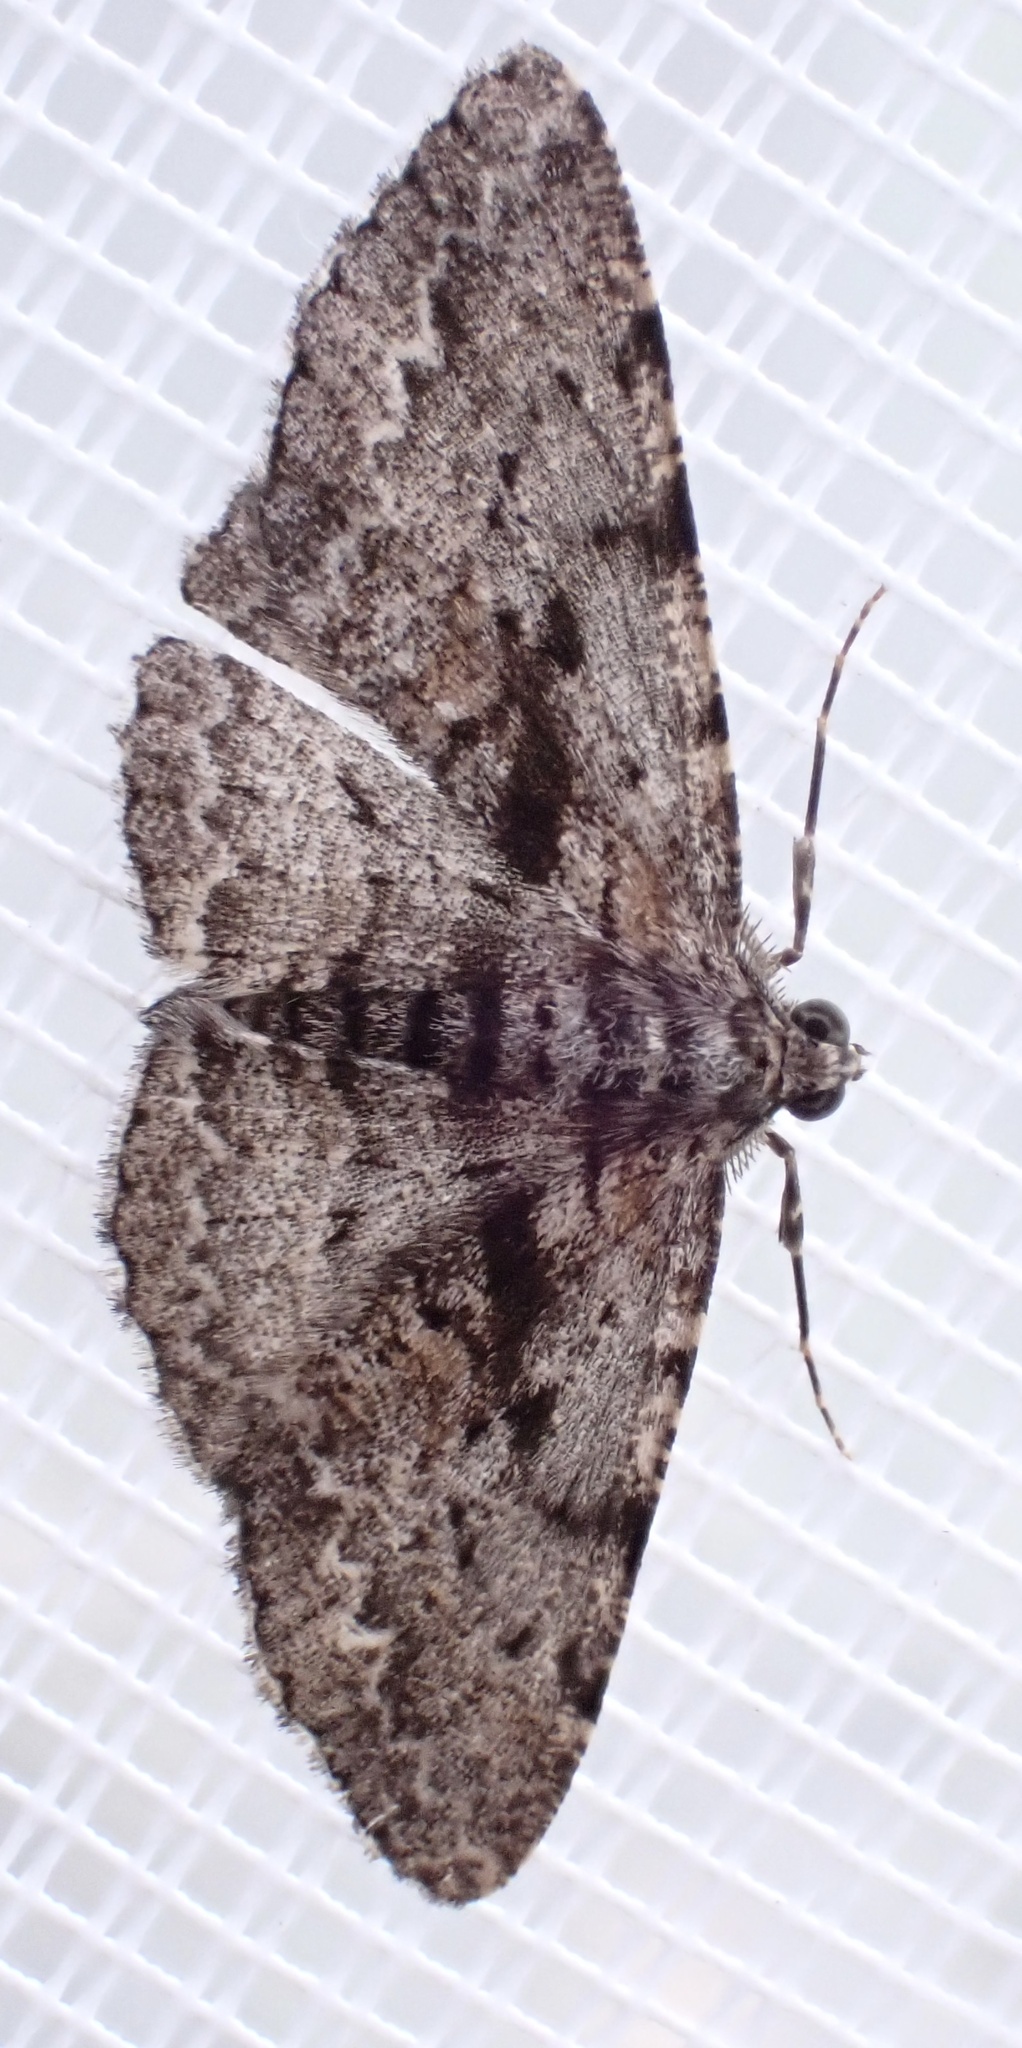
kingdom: Animalia
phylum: Arthropoda
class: Insecta
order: Lepidoptera
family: Geometridae
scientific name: Geometridae
